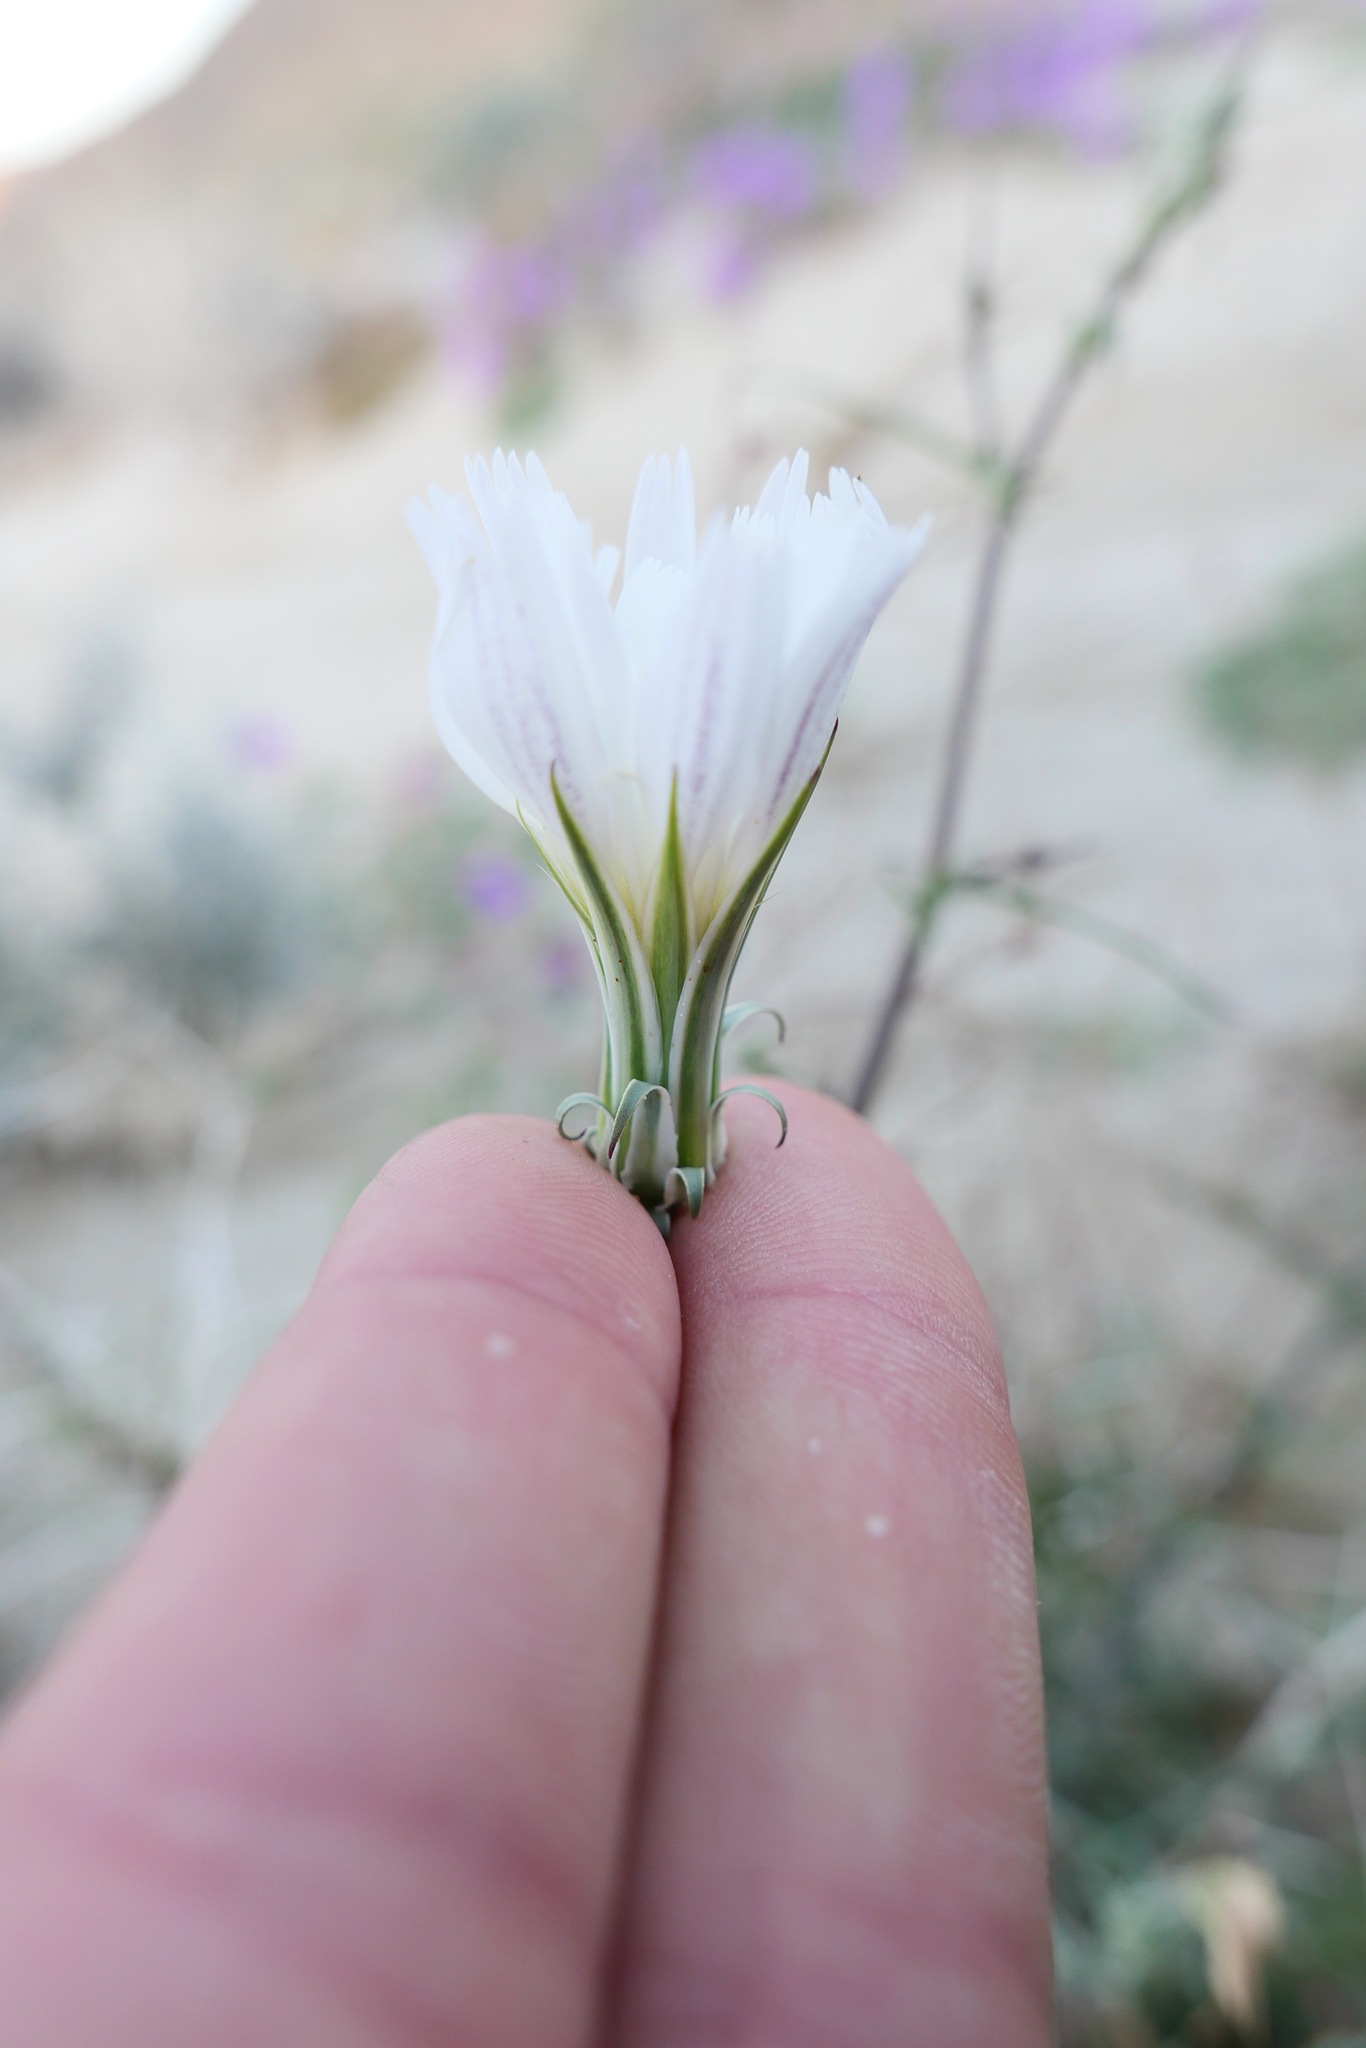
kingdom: Plantae
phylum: Tracheophyta
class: Magnoliopsida
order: Asterales
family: Asteraceae
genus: Rafinesquia
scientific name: Rafinesquia neomexicana
